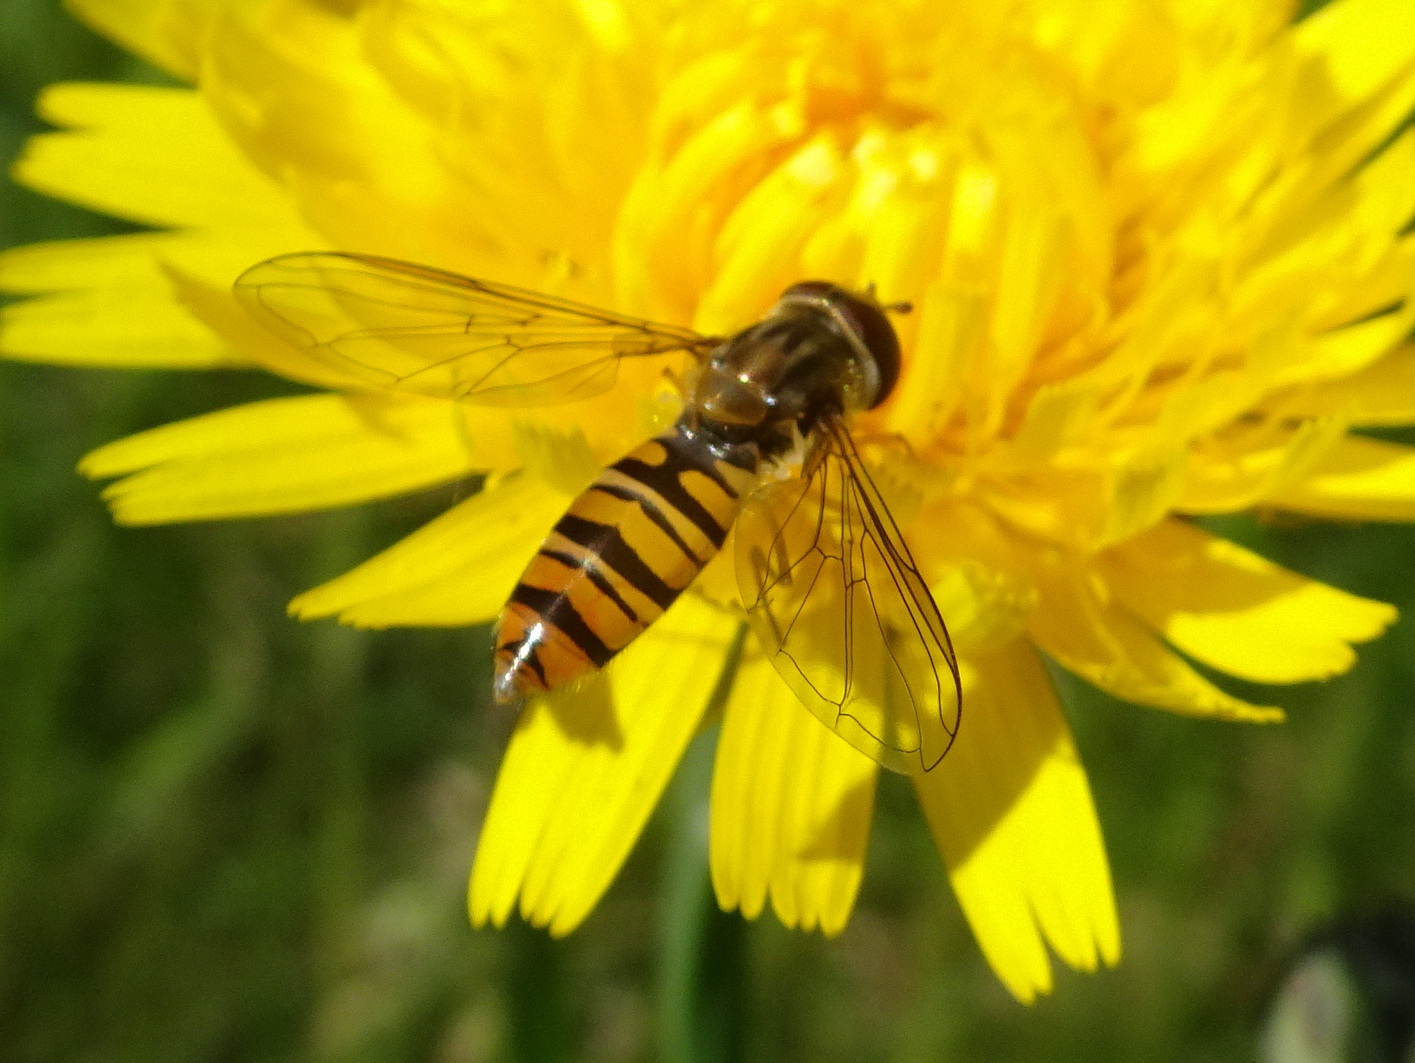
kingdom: Animalia
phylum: Arthropoda
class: Insecta
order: Diptera
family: Syrphidae
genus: Episyrphus
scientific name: Episyrphus balteatus
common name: Marmalade hoverfly
